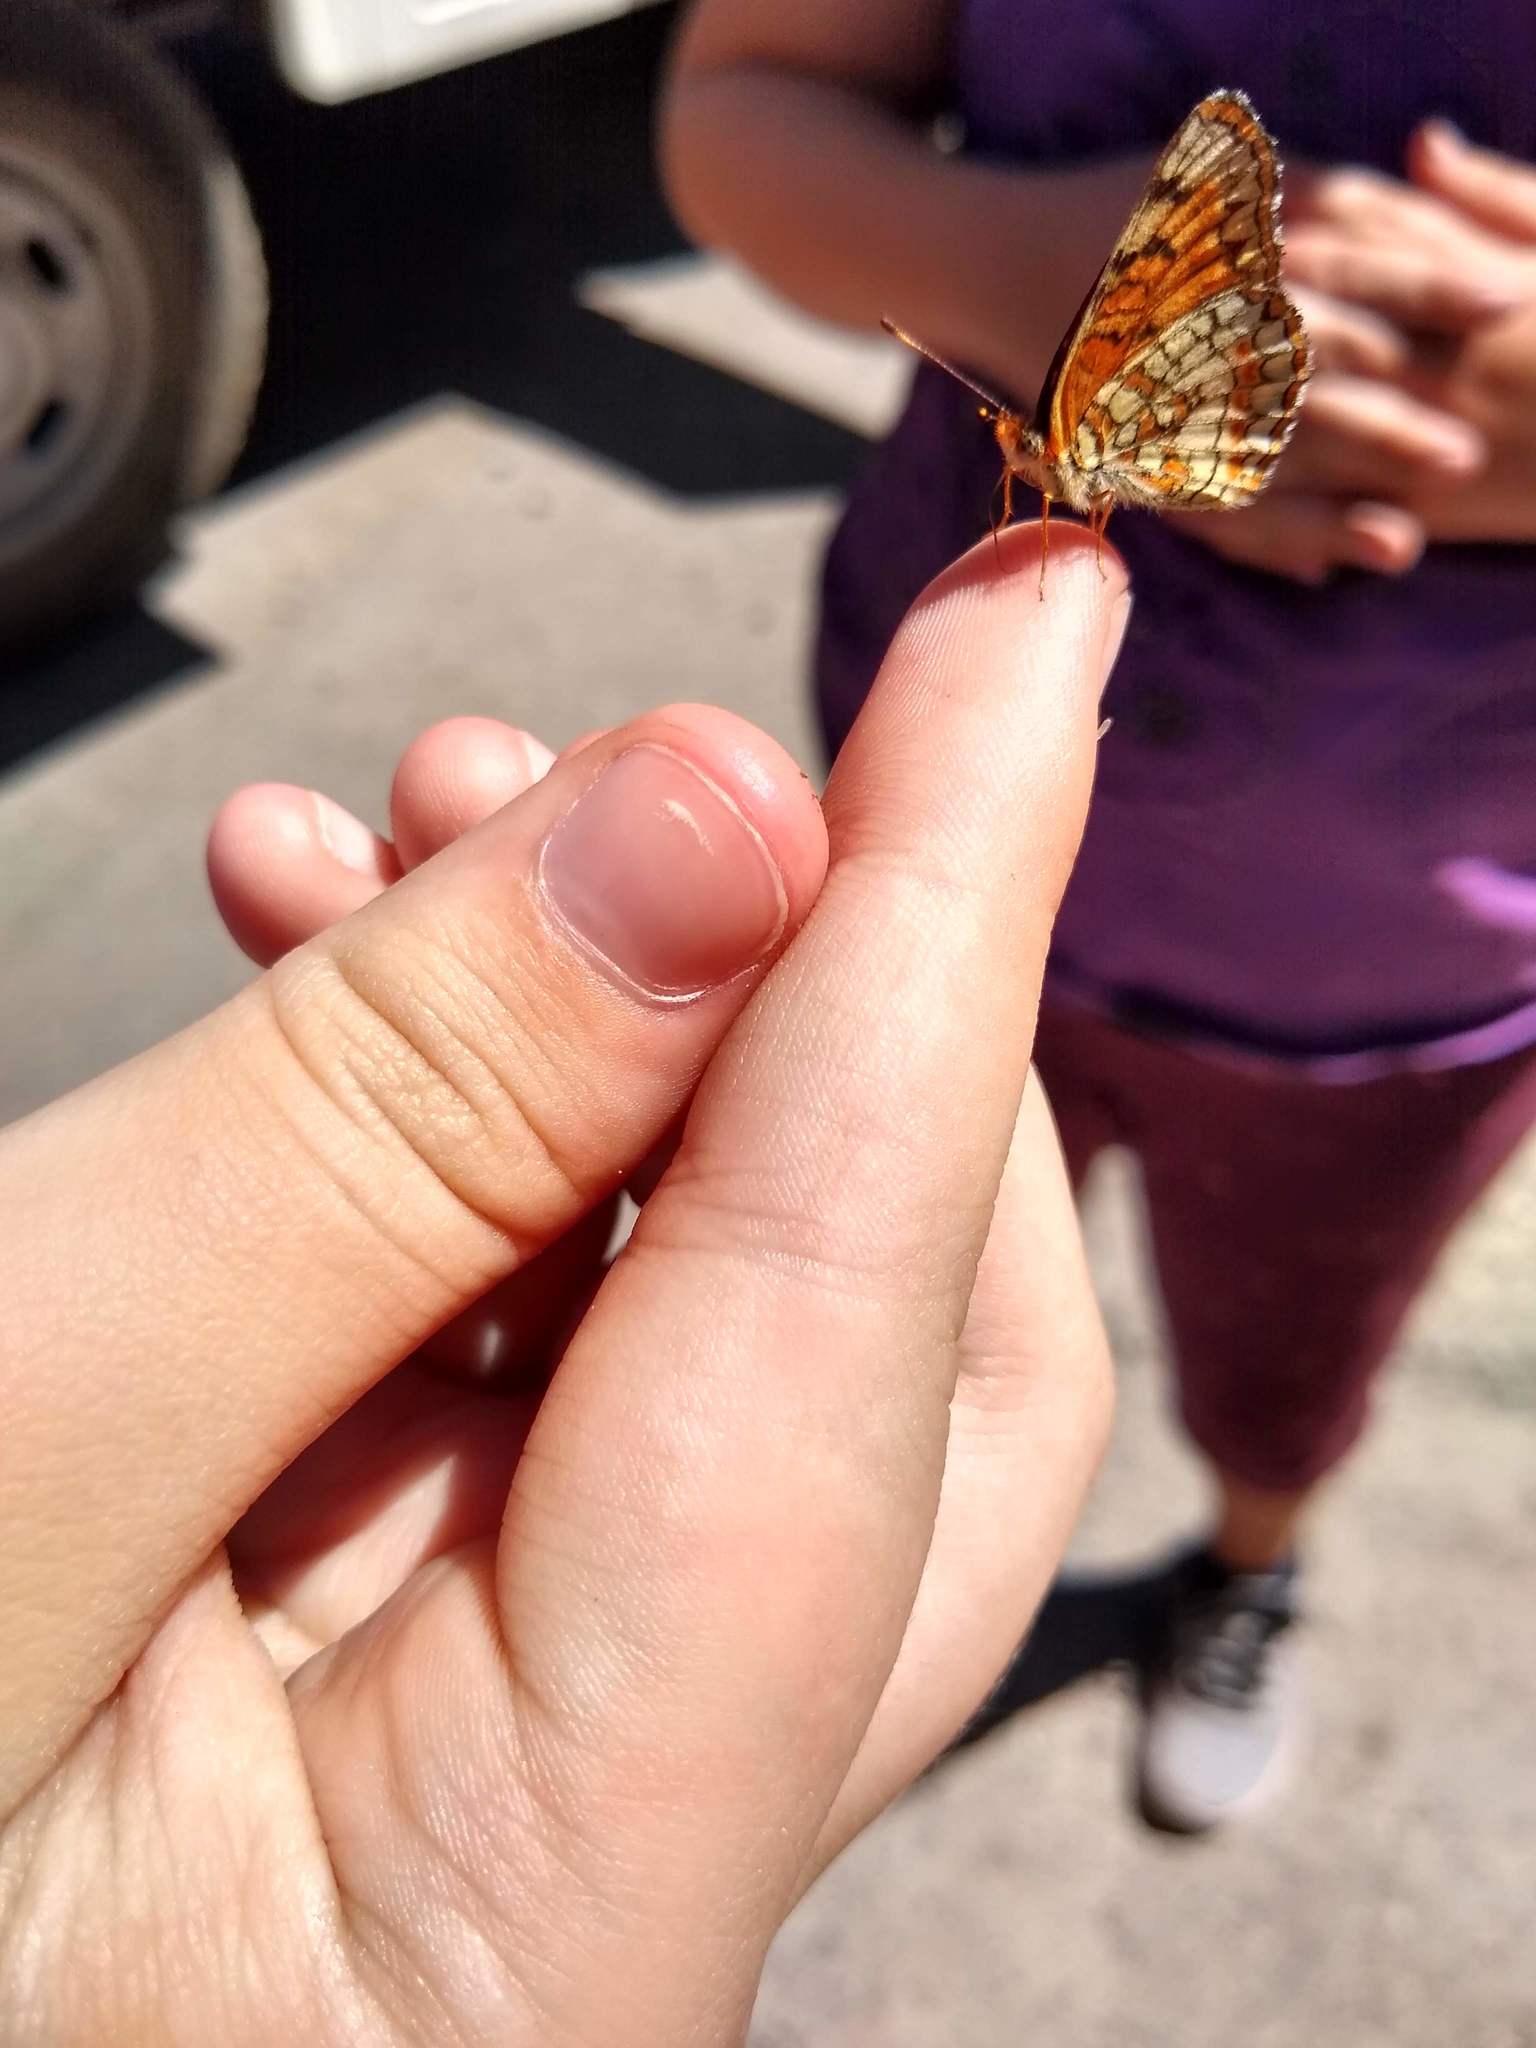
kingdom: Animalia
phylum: Arthropoda
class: Insecta
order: Lepidoptera
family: Nymphalidae
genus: Chlosyne
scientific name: Chlosyne palla
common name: Northern checkerspot
